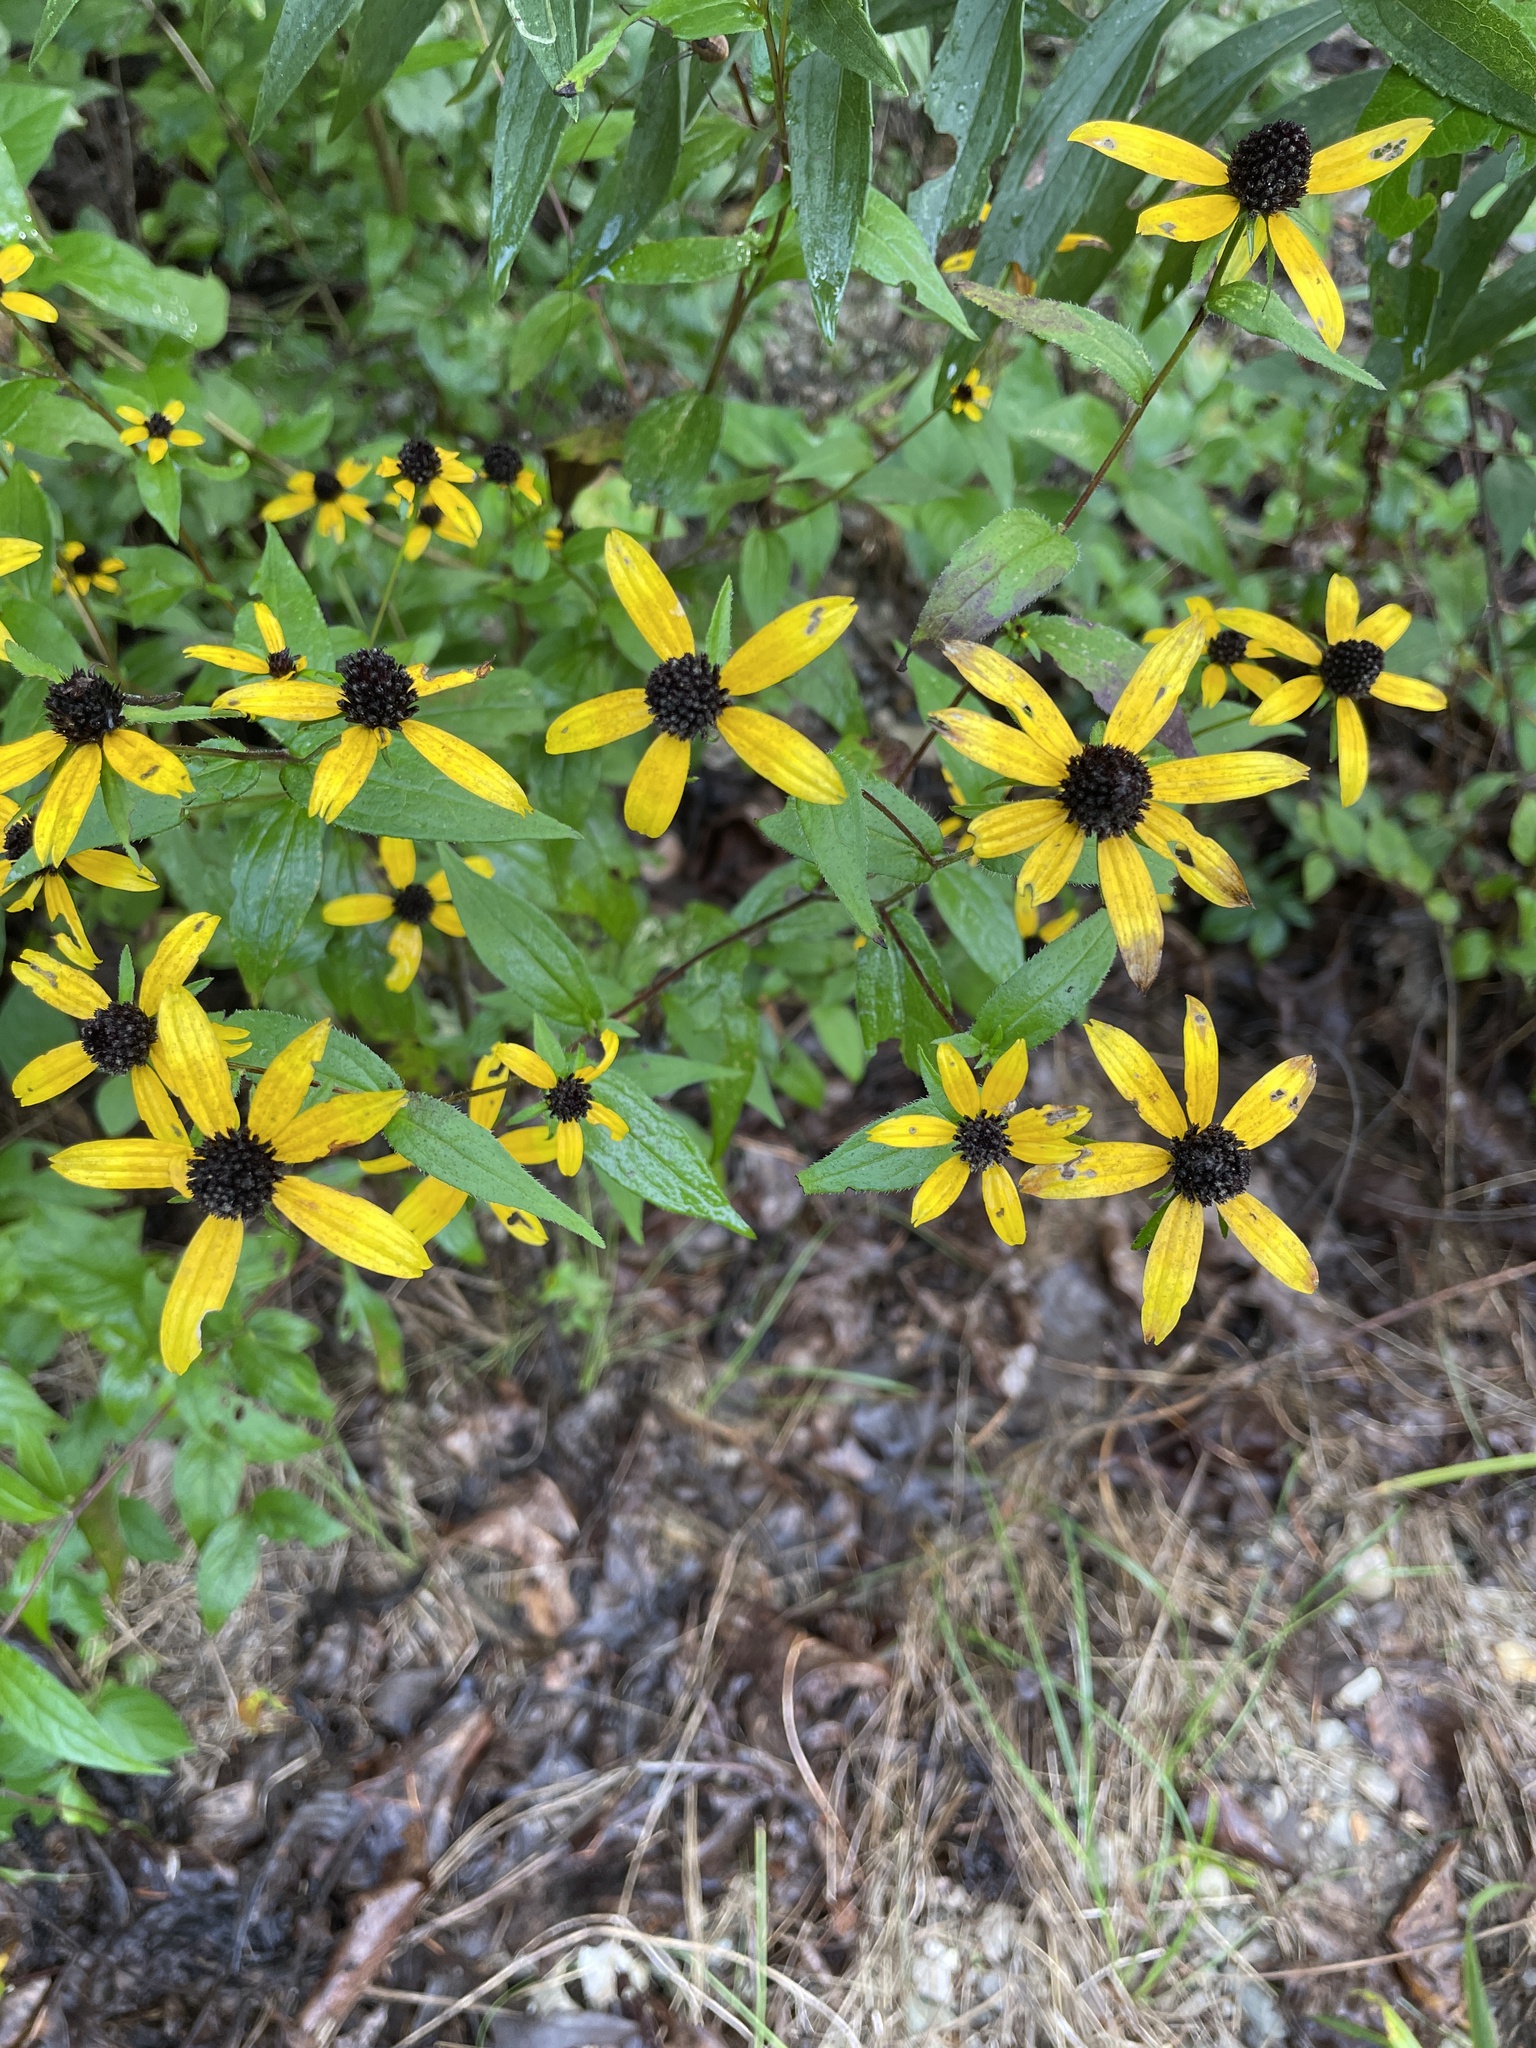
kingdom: Plantae
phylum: Tracheophyta
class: Magnoliopsida
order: Asterales
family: Asteraceae
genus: Rudbeckia
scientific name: Rudbeckia triloba
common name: Thin-leaved coneflower
